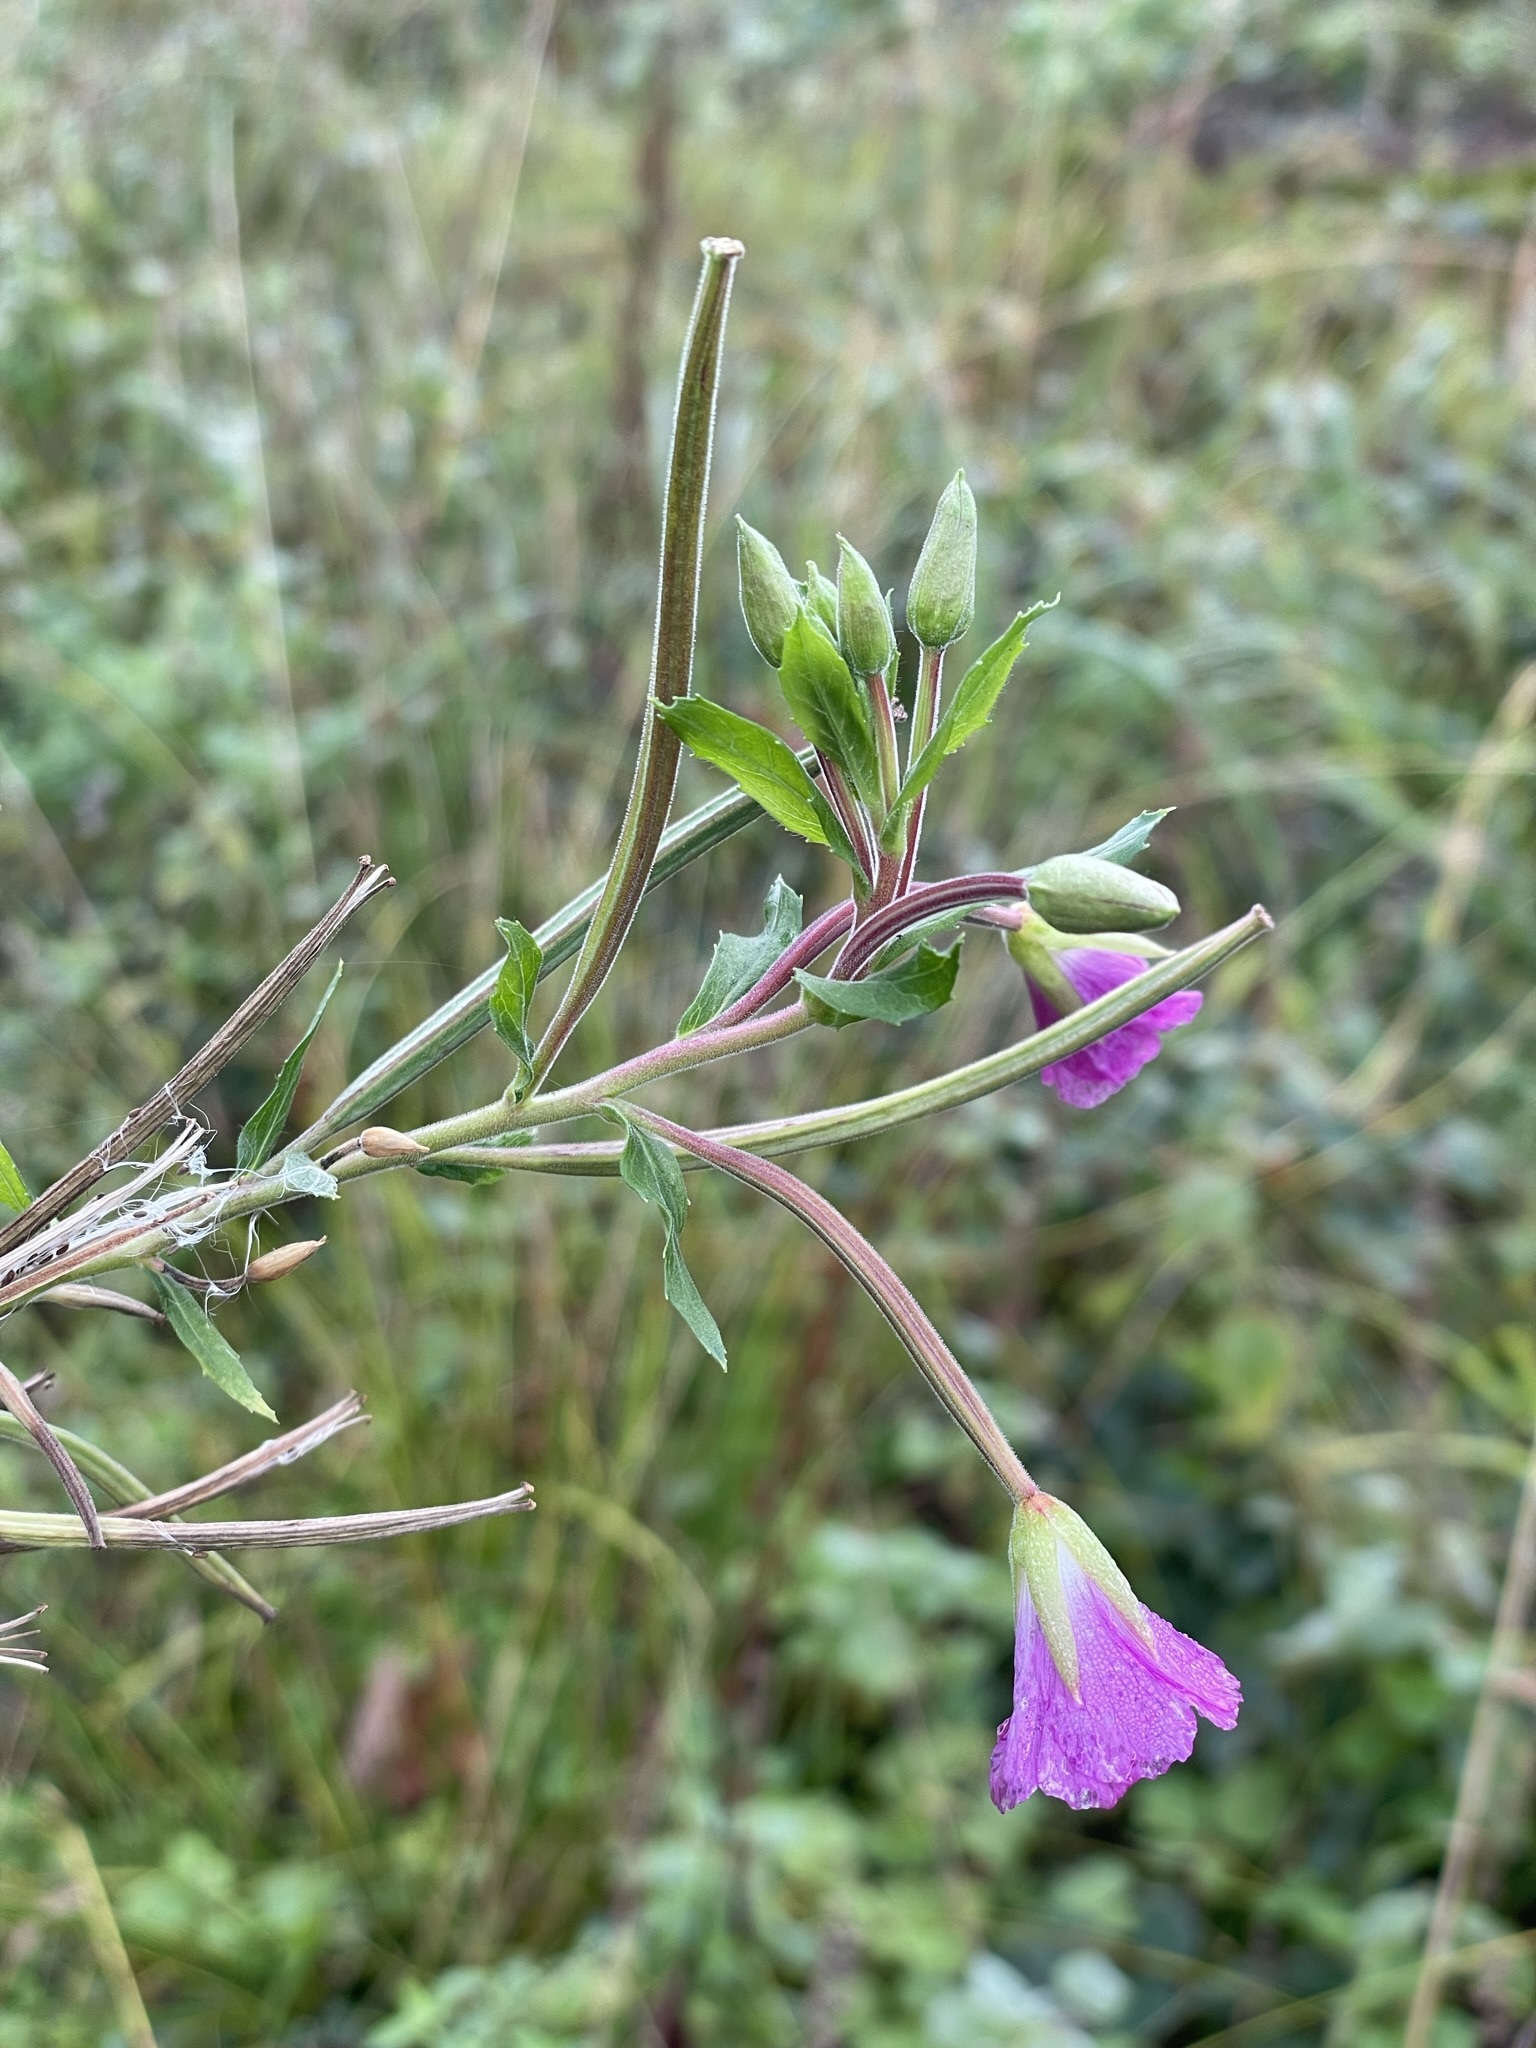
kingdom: Plantae
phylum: Tracheophyta
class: Magnoliopsida
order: Myrtales
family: Onagraceae
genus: Epilobium
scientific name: Epilobium hirsutum
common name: Great willowherb
